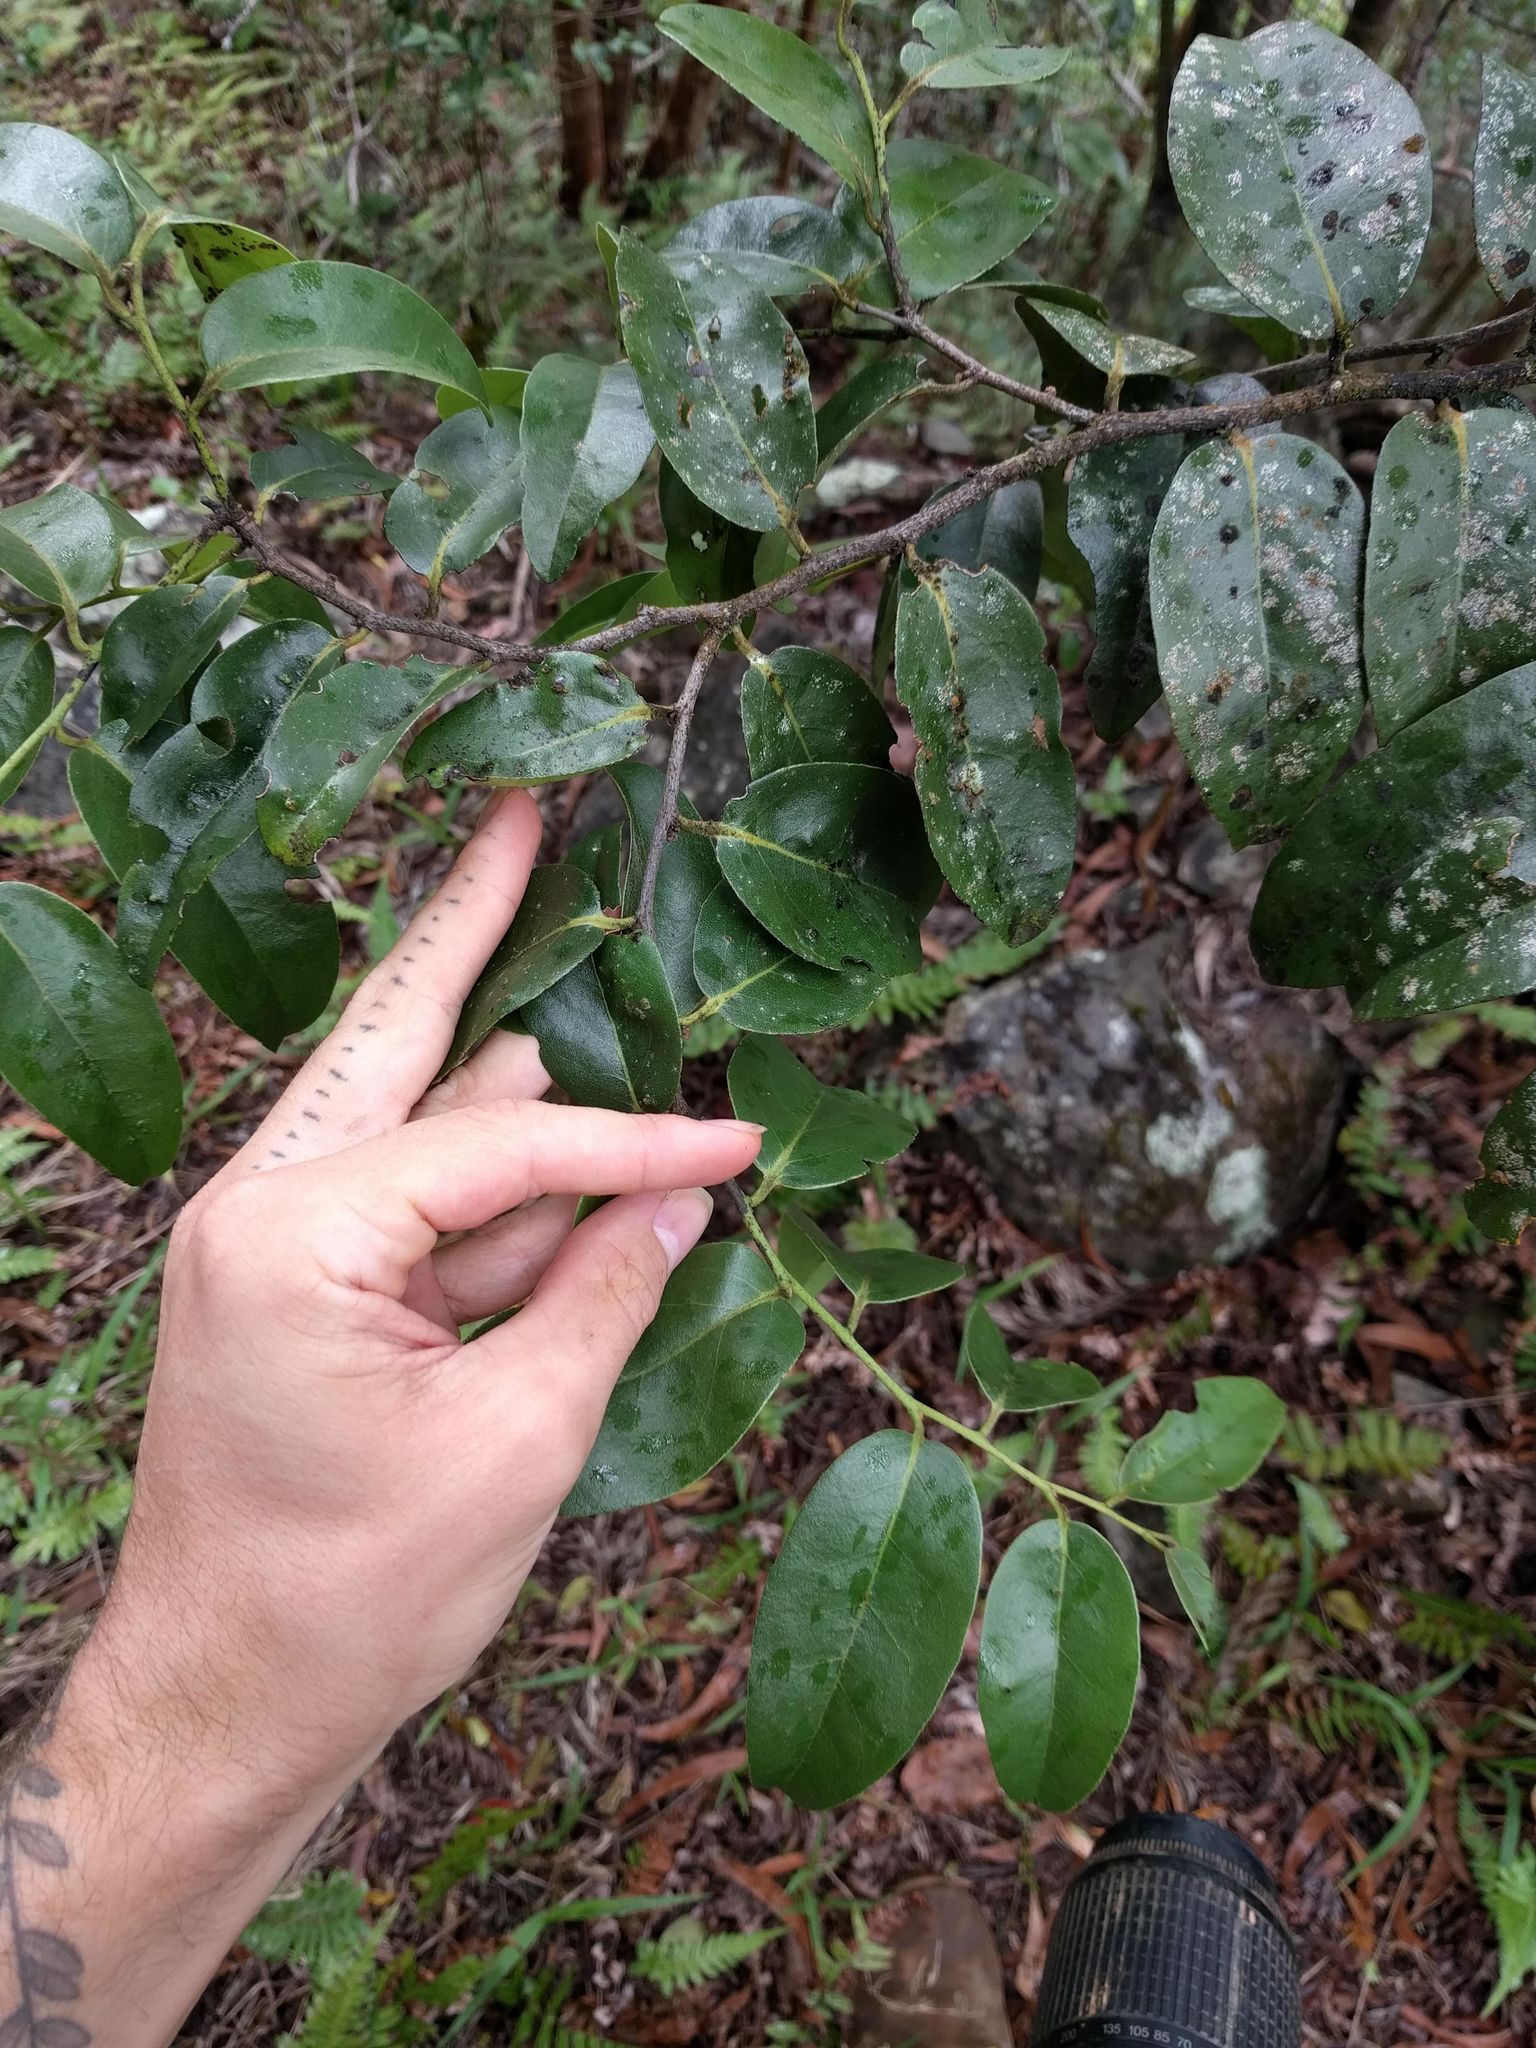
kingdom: Plantae
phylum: Tracheophyta
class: Magnoliopsida
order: Ericales
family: Ebenaceae
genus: Diospyros
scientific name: Diospyros sandwicensis
